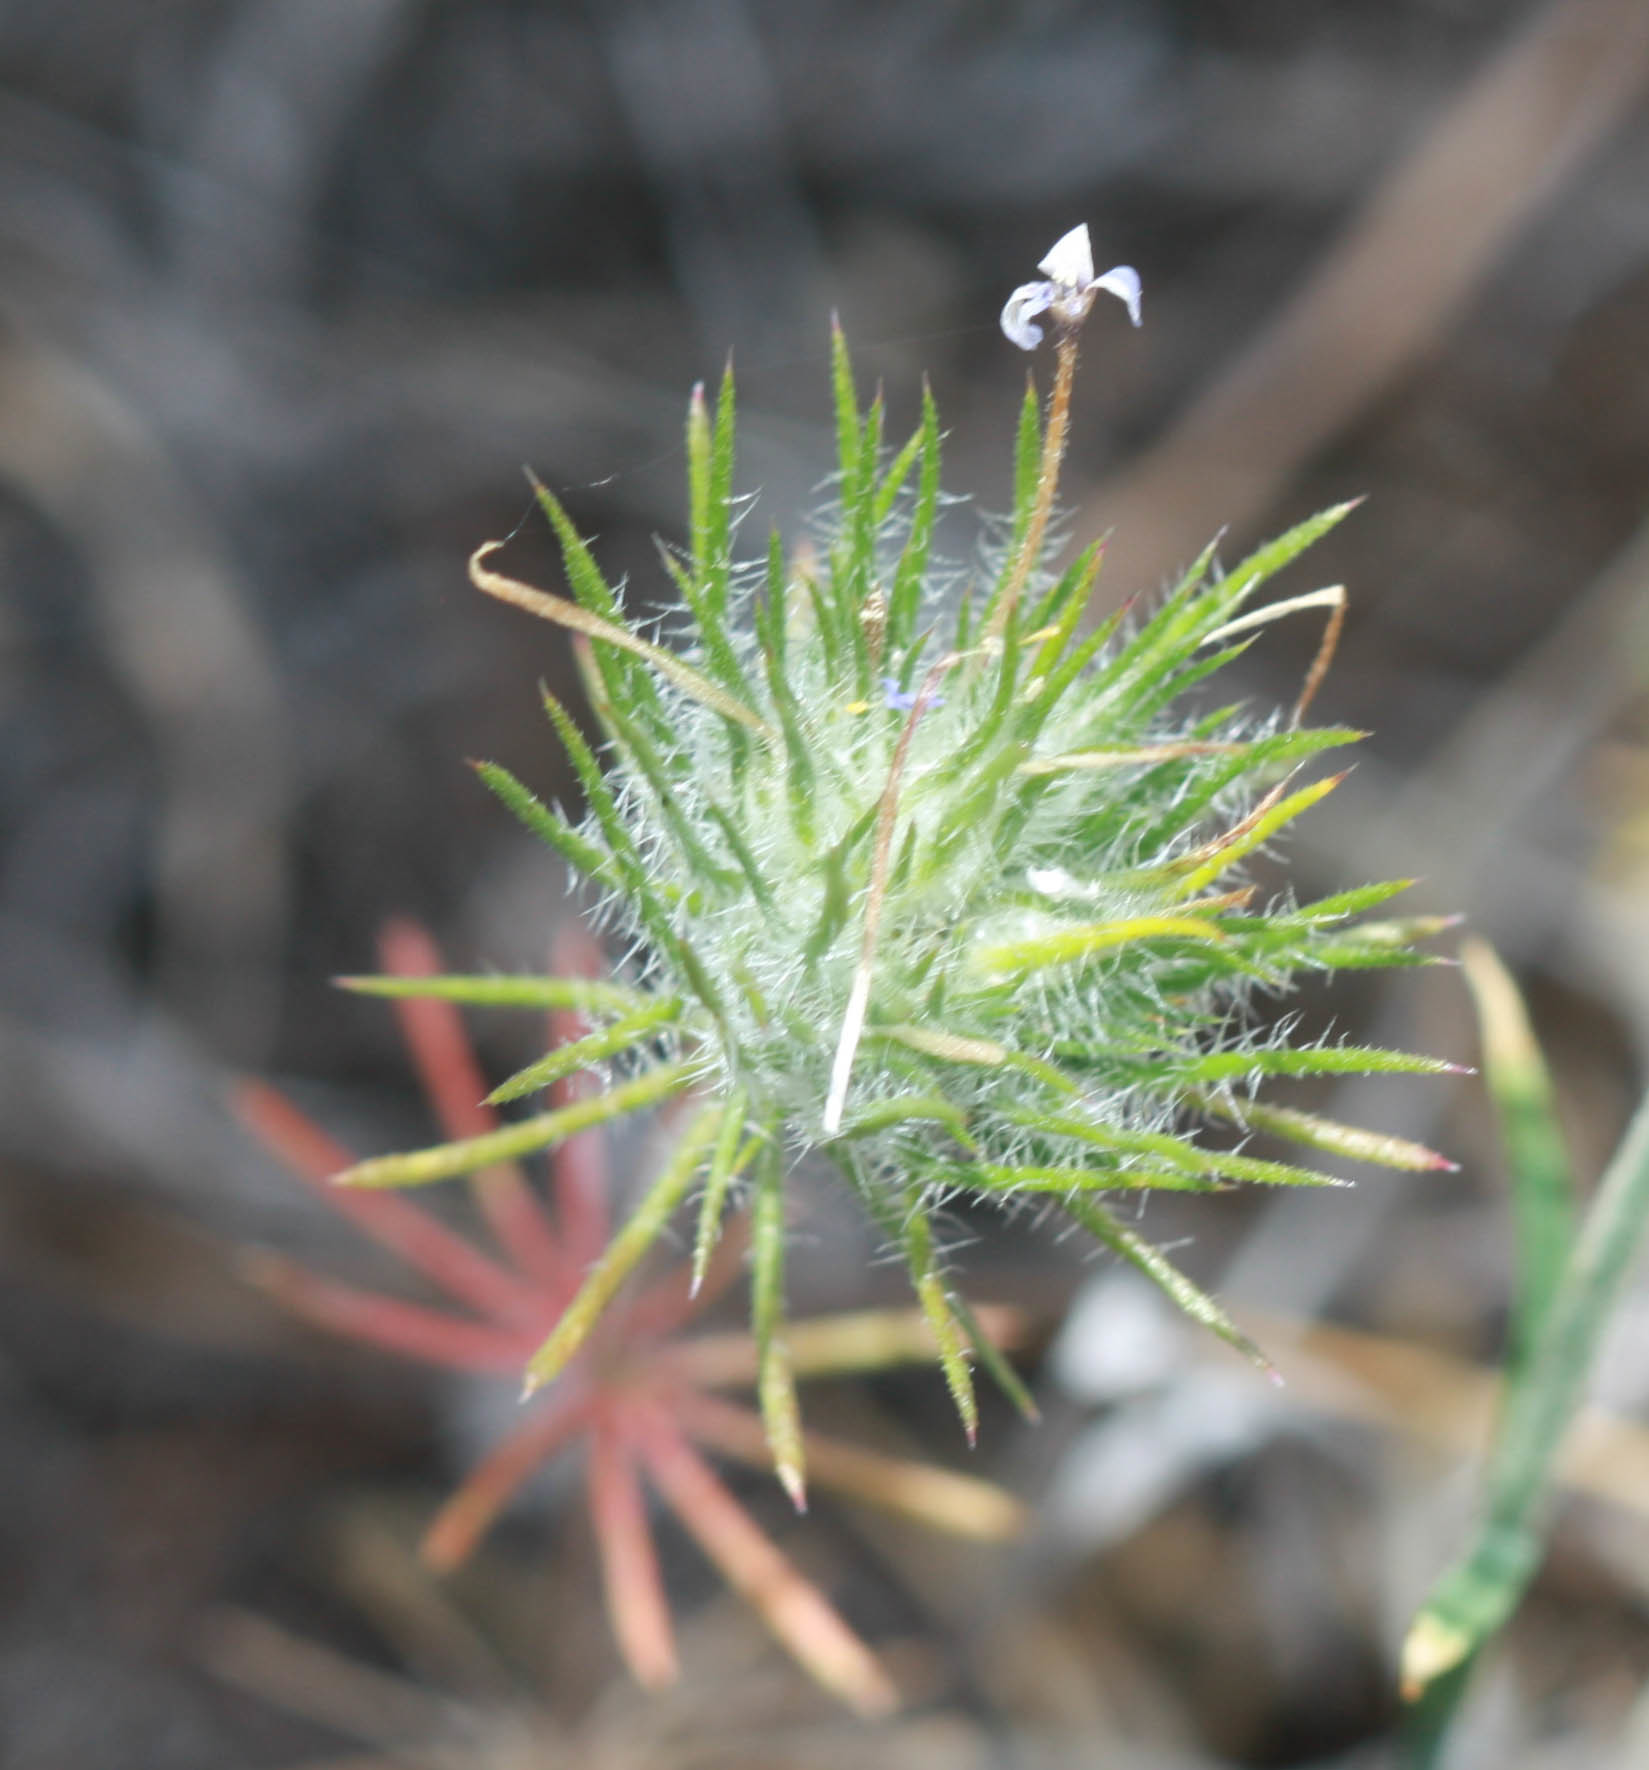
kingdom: Plantae
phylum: Tracheophyta
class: Magnoliopsida
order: Ericales
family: Polemoniaceae
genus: Leptosiphon
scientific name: Leptosiphon ciliatus
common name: Whiskerbrush
